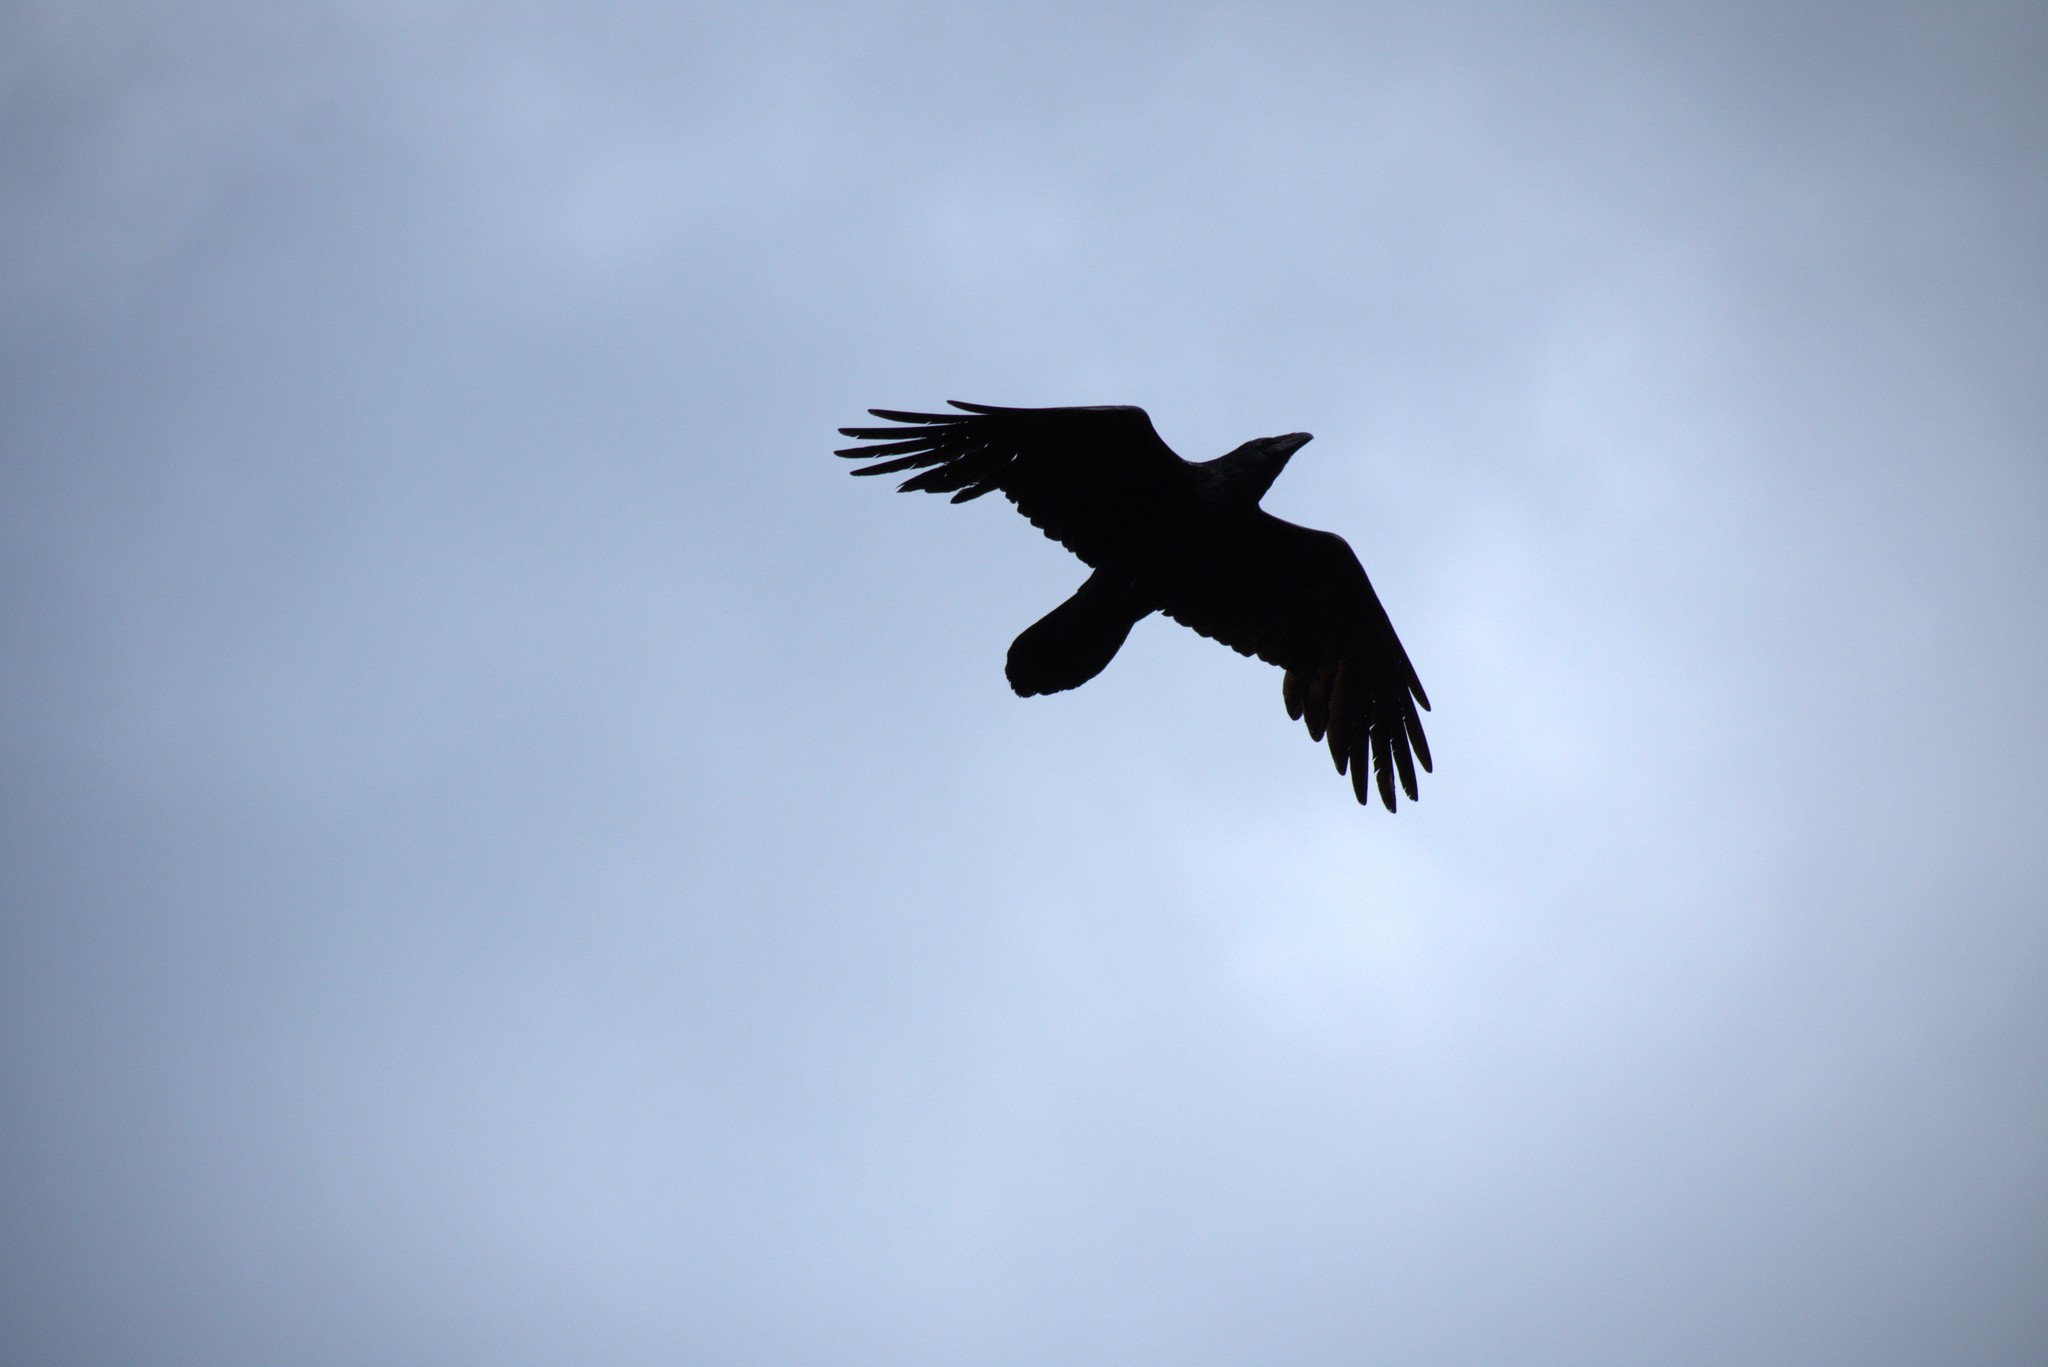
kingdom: Animalia
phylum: Chordata
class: Aves
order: Passeriformes
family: Corvidae
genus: Corvus
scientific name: Corvus corax
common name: Common raven
